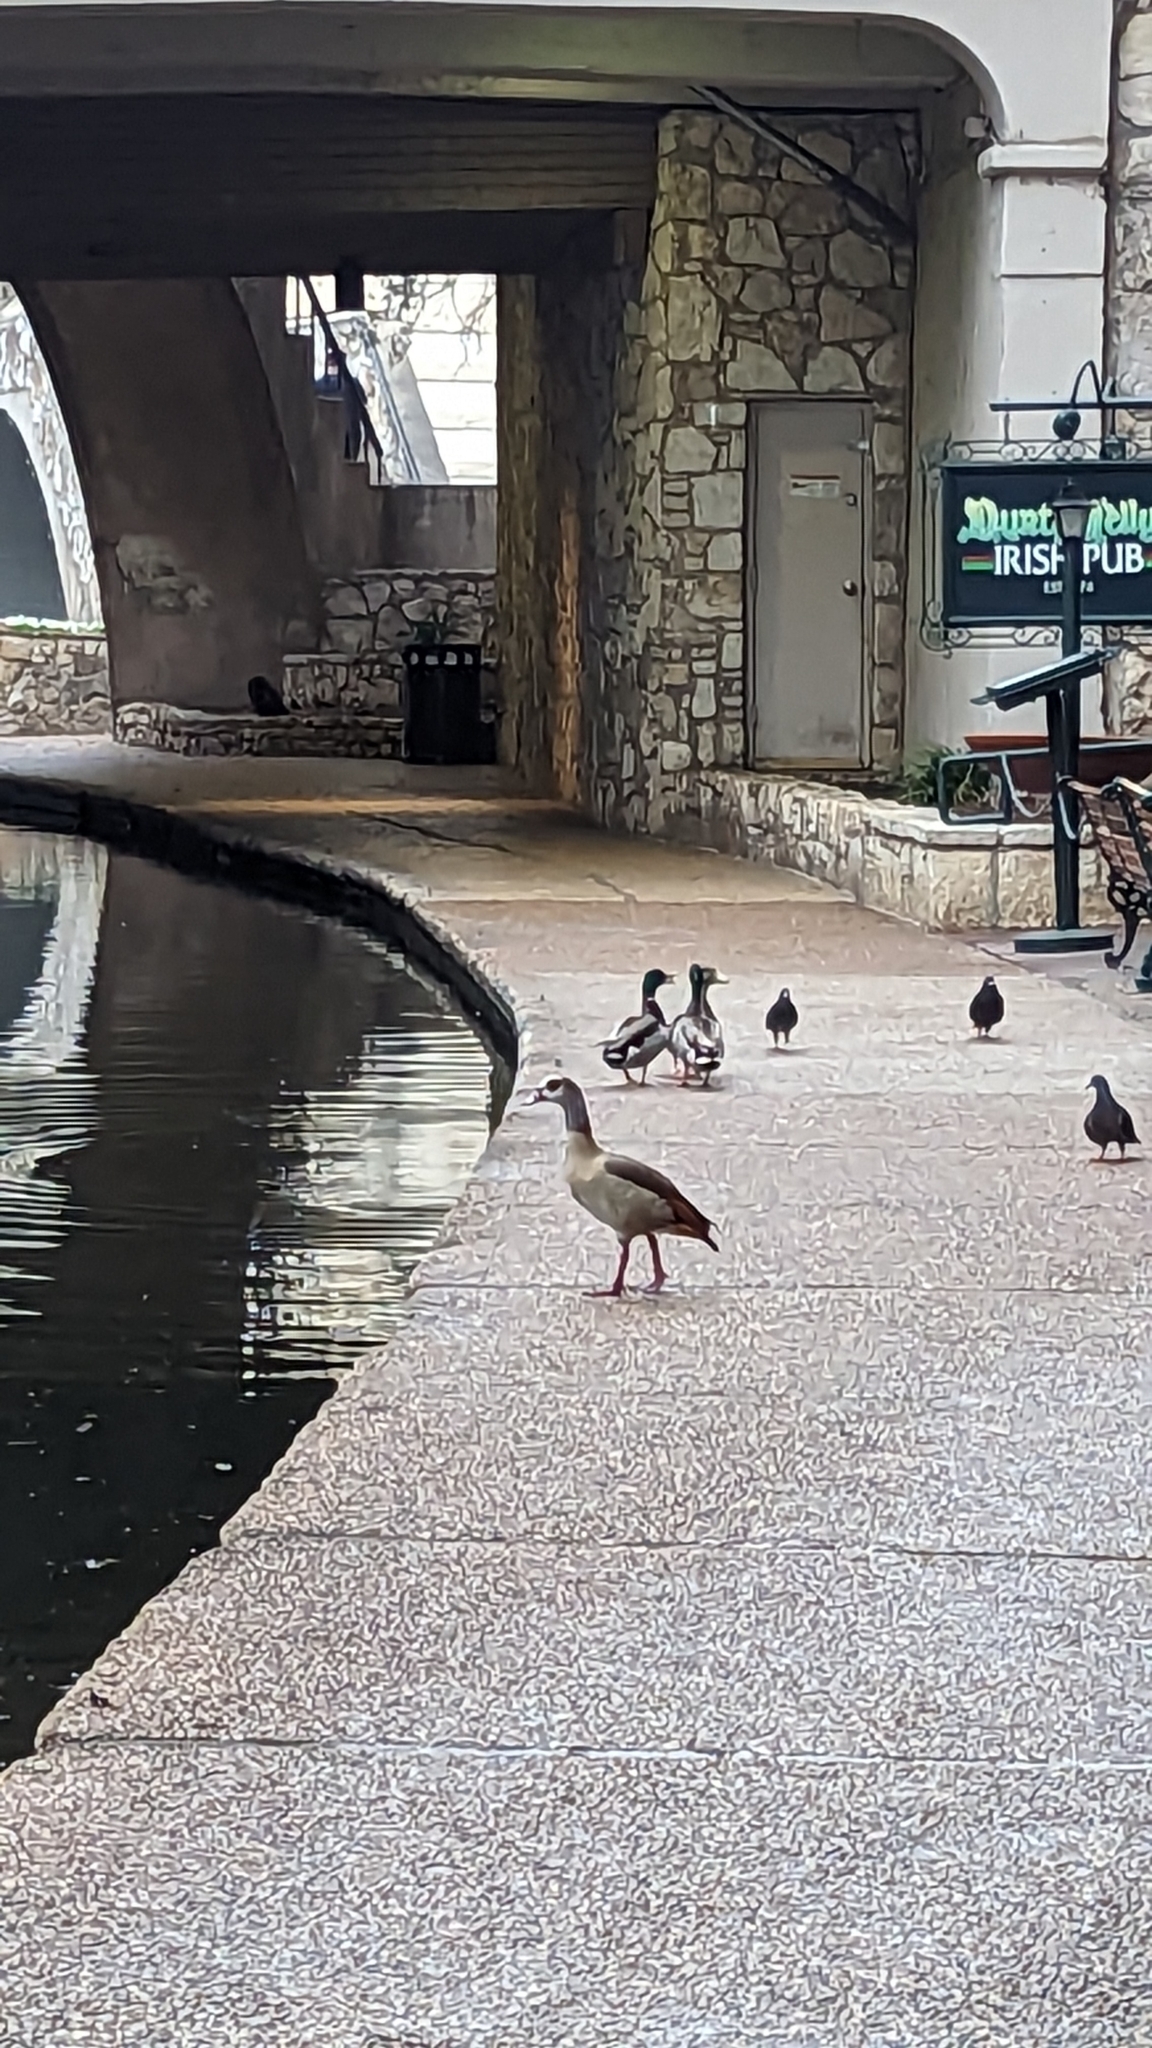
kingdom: Animalia
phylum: Chordata
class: Aves
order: Anseriformes
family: Anatidae
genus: Alopochen
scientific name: Alopochen aegyptiaca
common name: Egyptian goose
